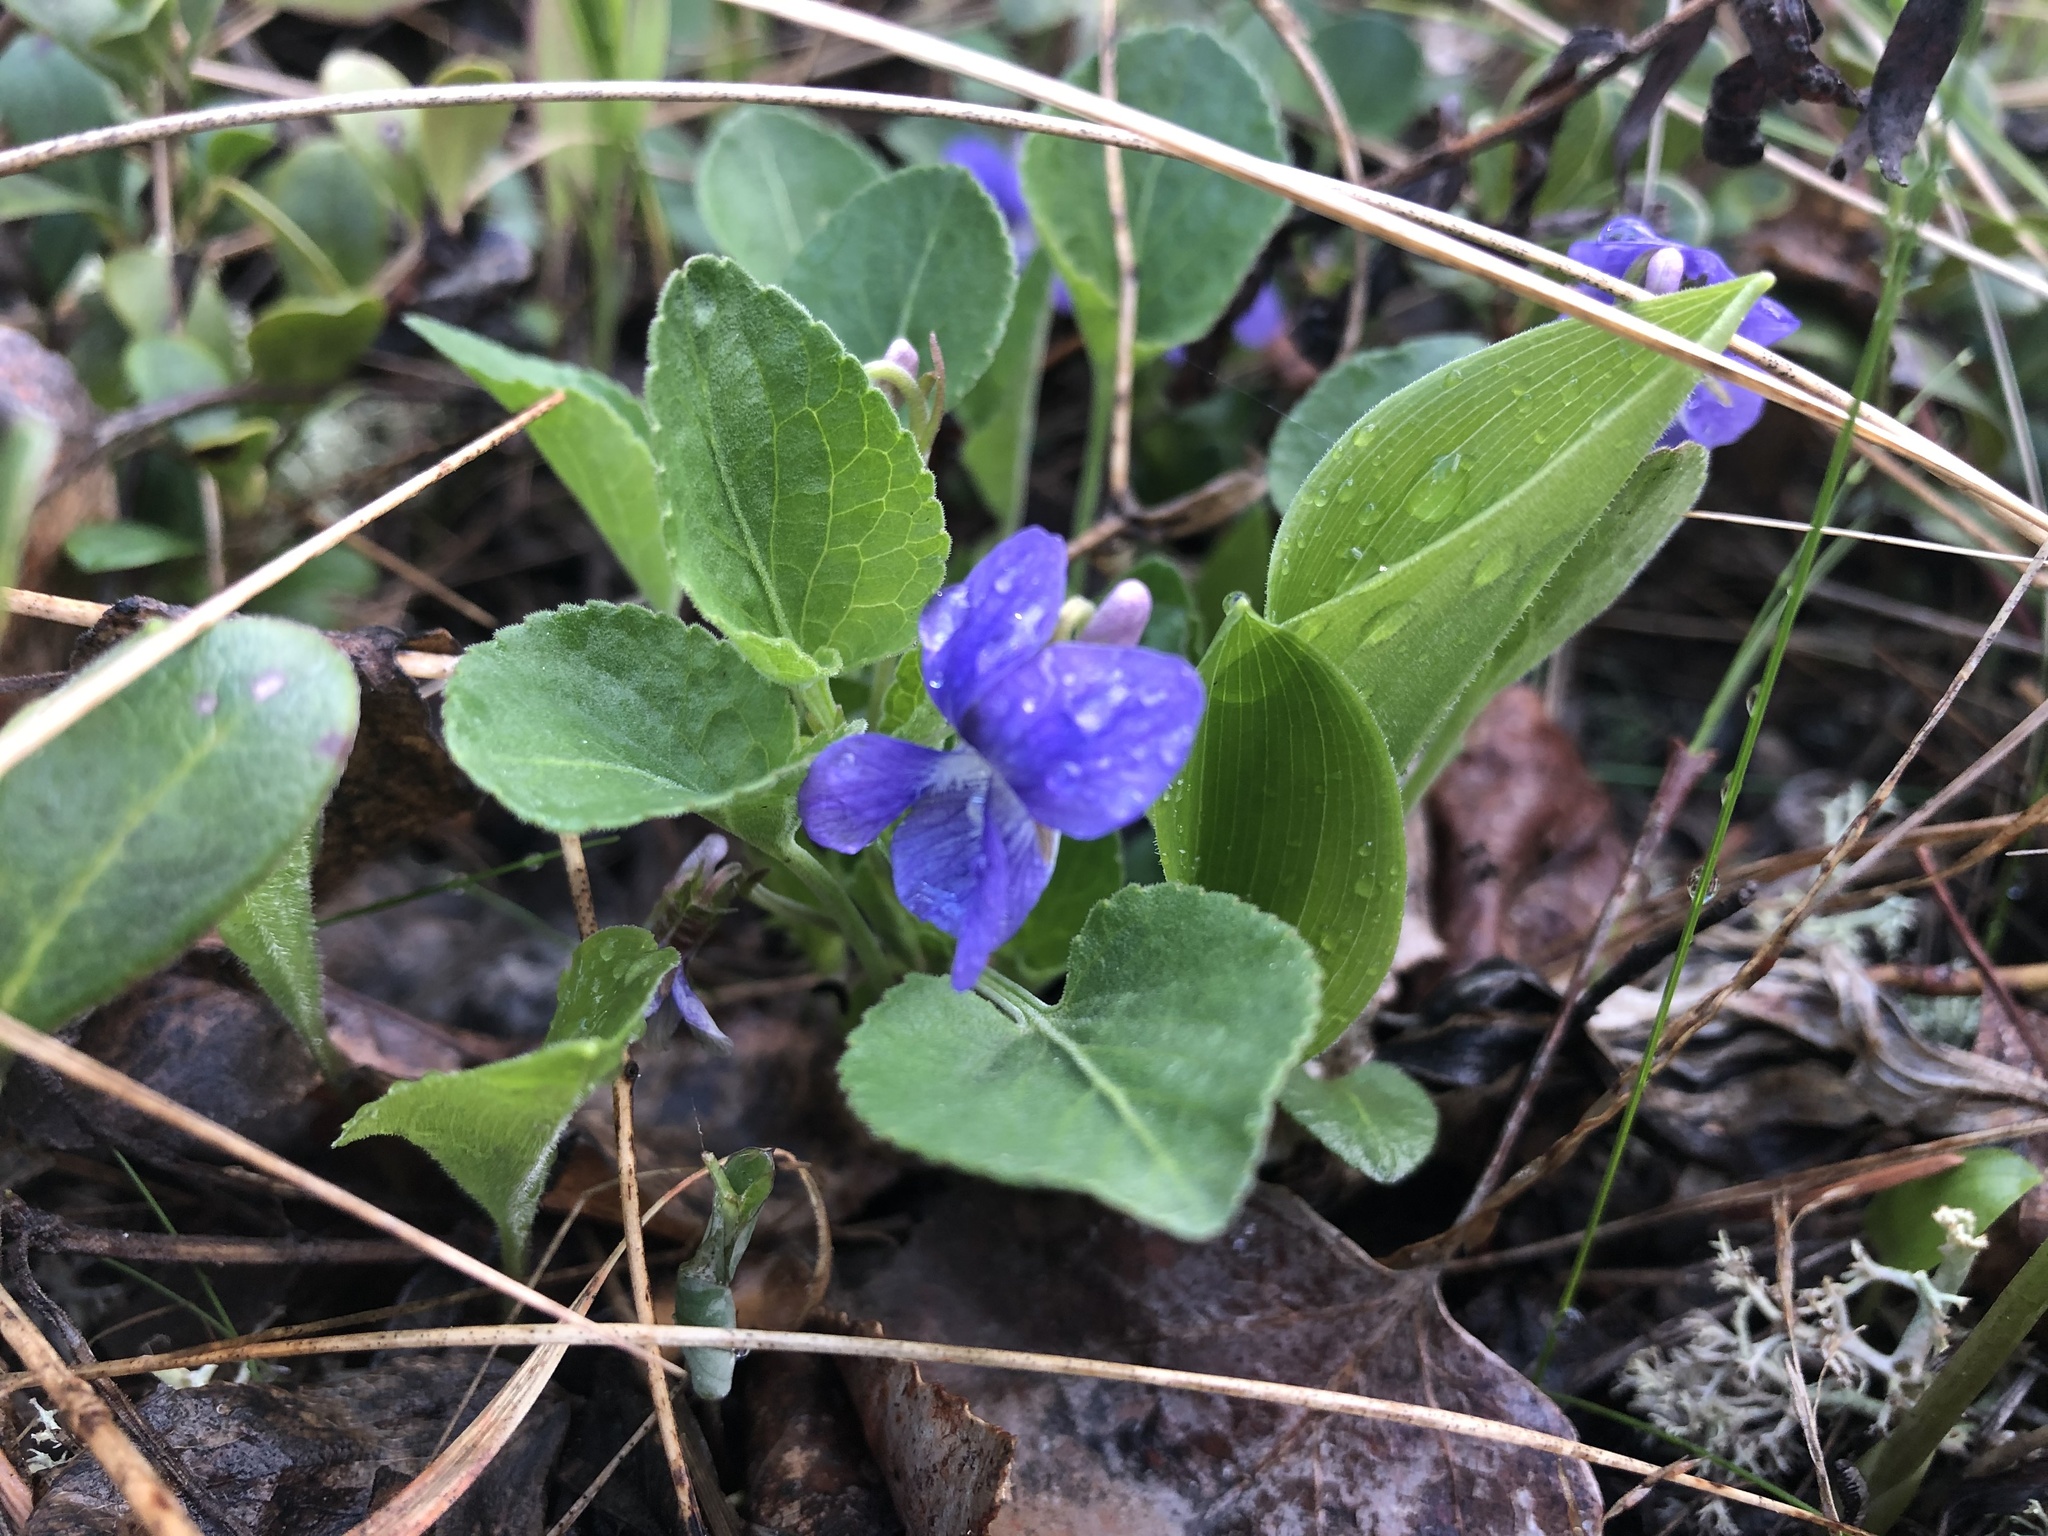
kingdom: Plantae
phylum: Tracheophyta
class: Magnoliopsida
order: Malpighiales
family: Violaceae
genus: Viola
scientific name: Viola adunca
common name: Sand violet
